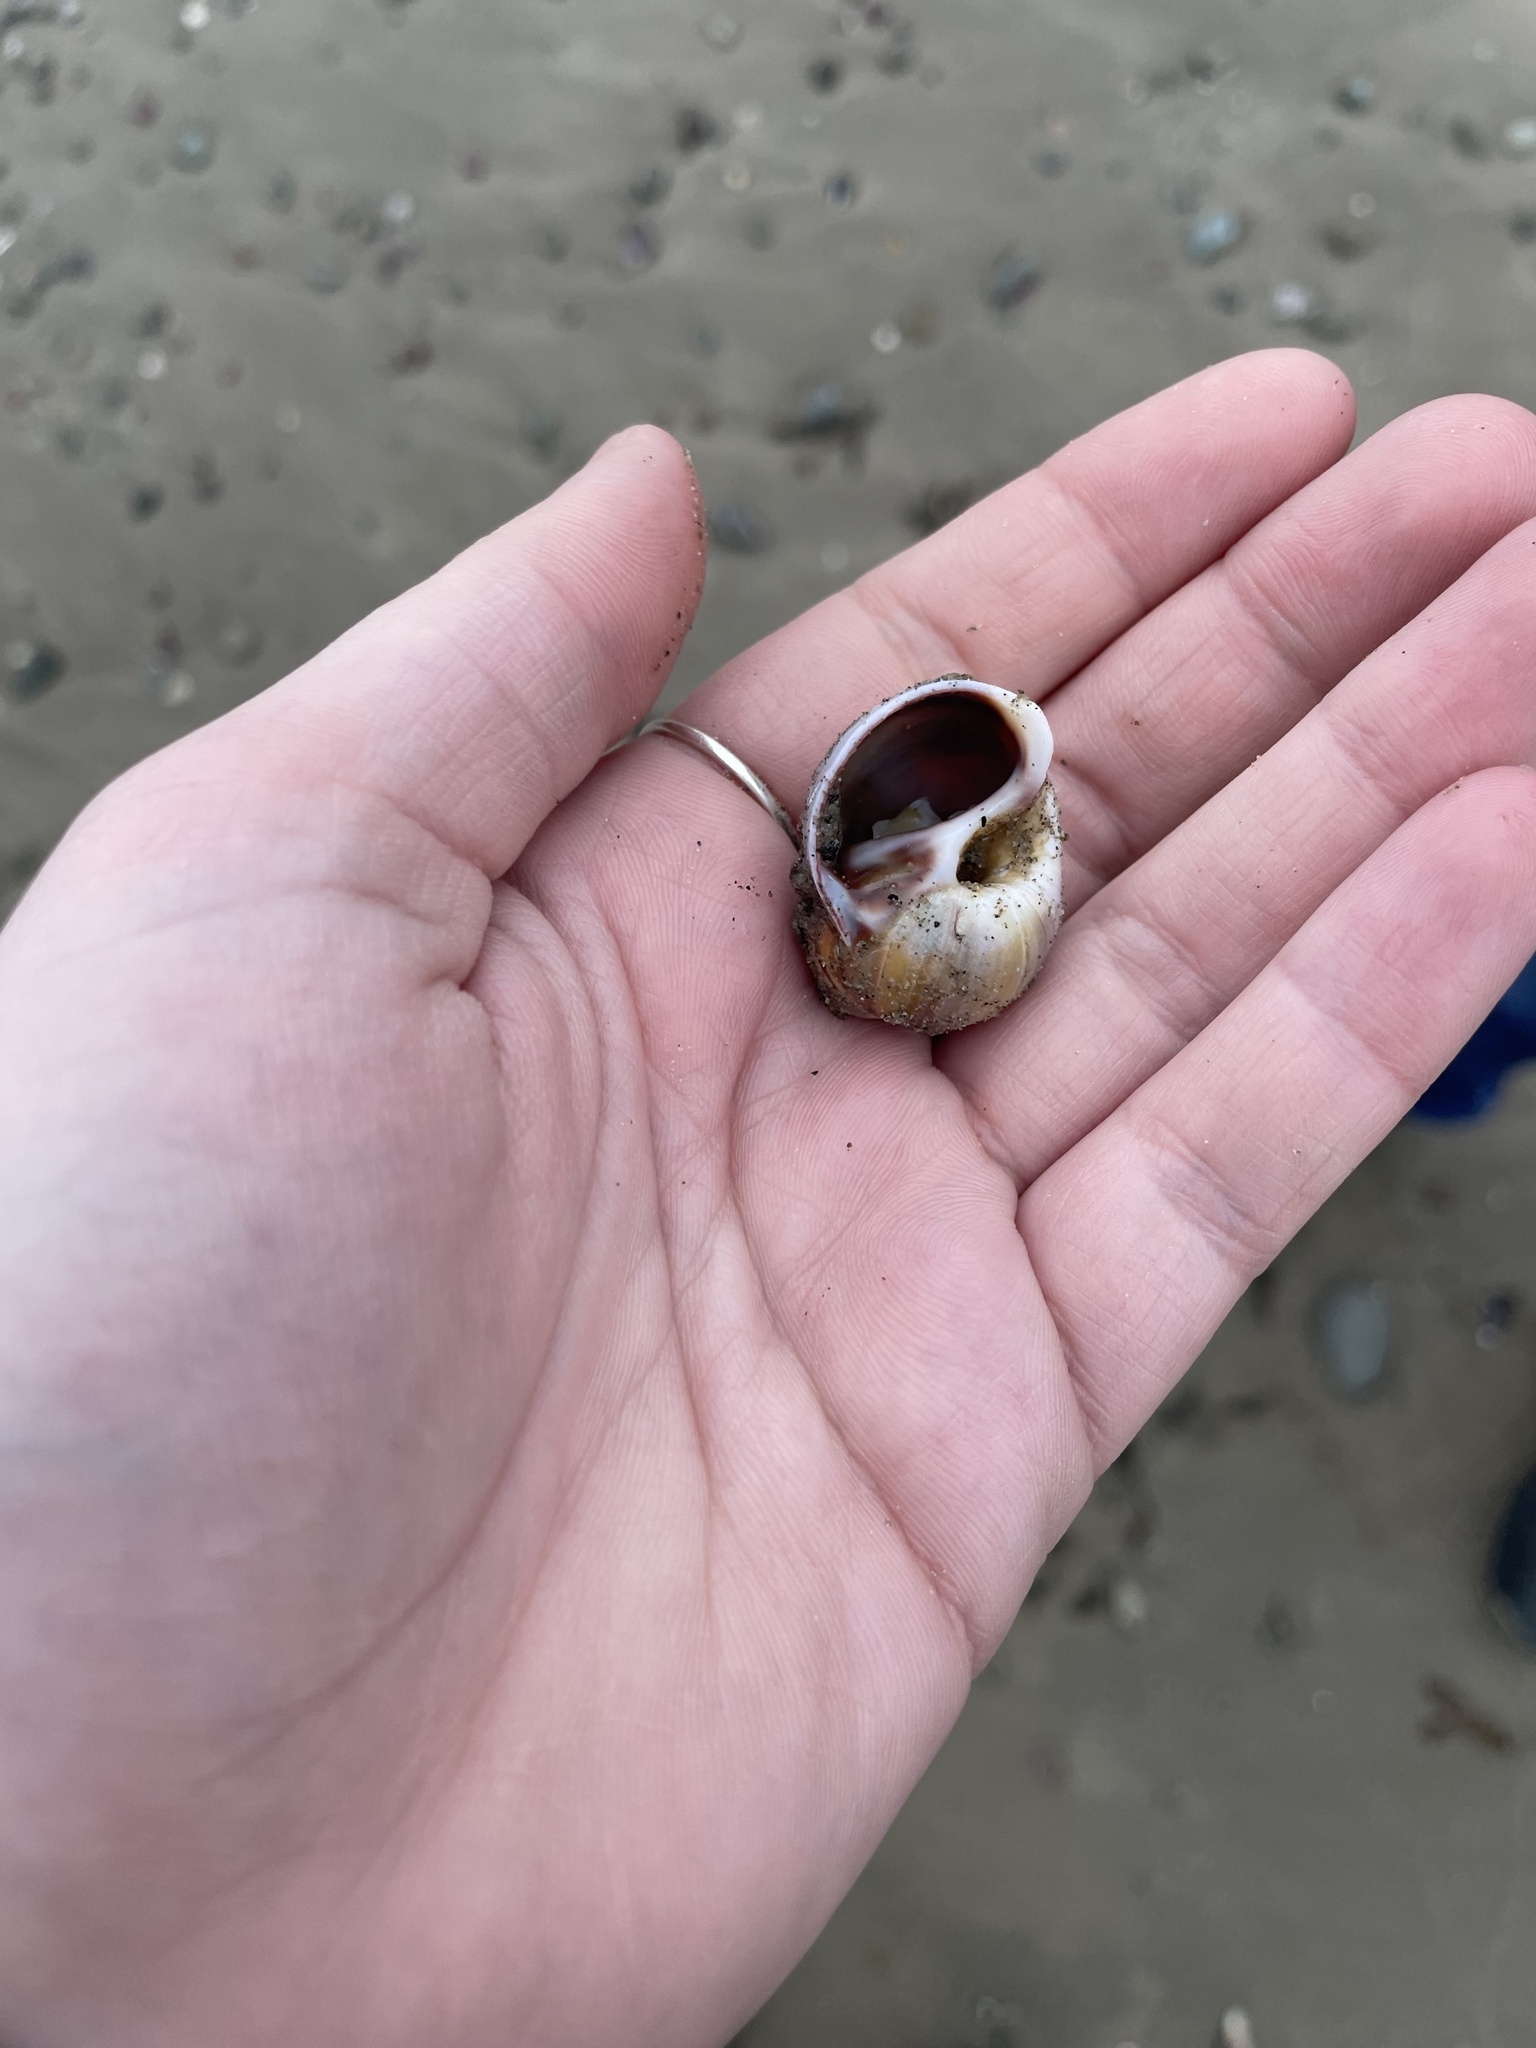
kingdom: Animalia
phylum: Mollusca
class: Gastropoda
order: Littorinimorpha
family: Naticidae
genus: Euspira
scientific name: Euspira heros
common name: Common northern moonsnail
